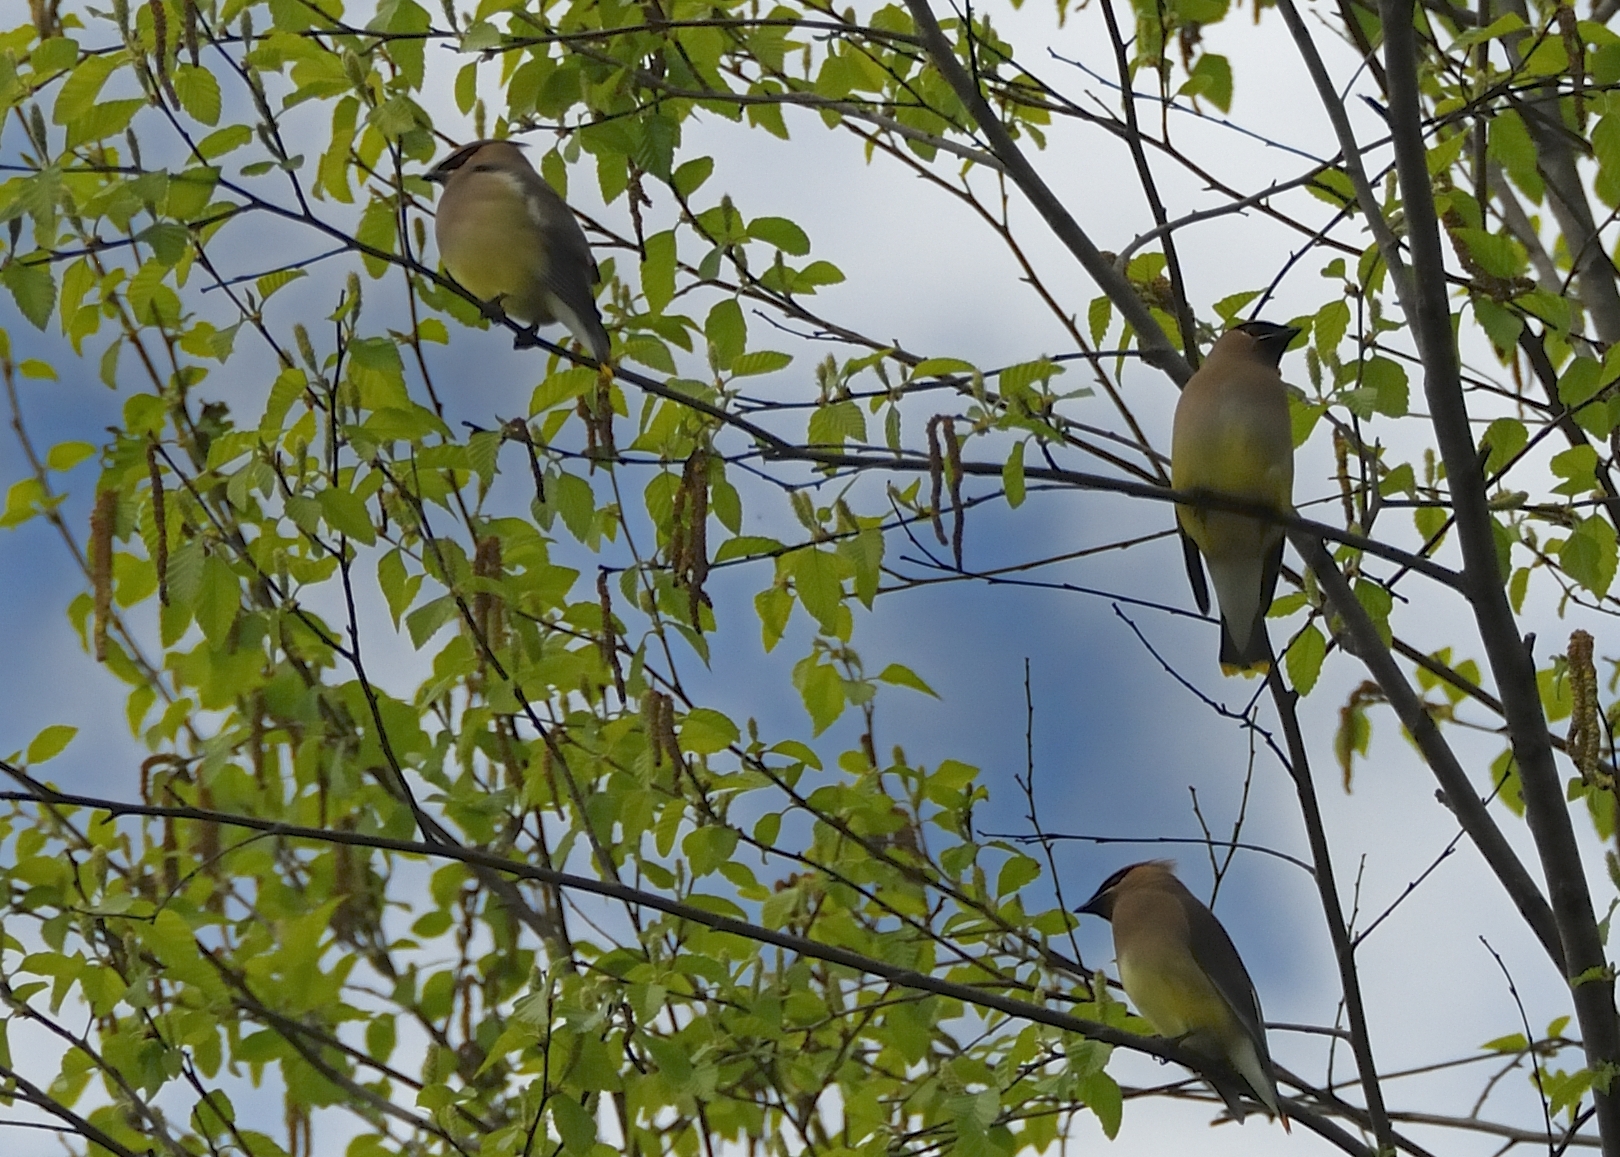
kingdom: Animalia
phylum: Chordata
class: Aves
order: Passeriformes
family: Bombycillidae
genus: Bombycilla
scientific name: Bombycilla cedrorum
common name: Cedar waxwing
